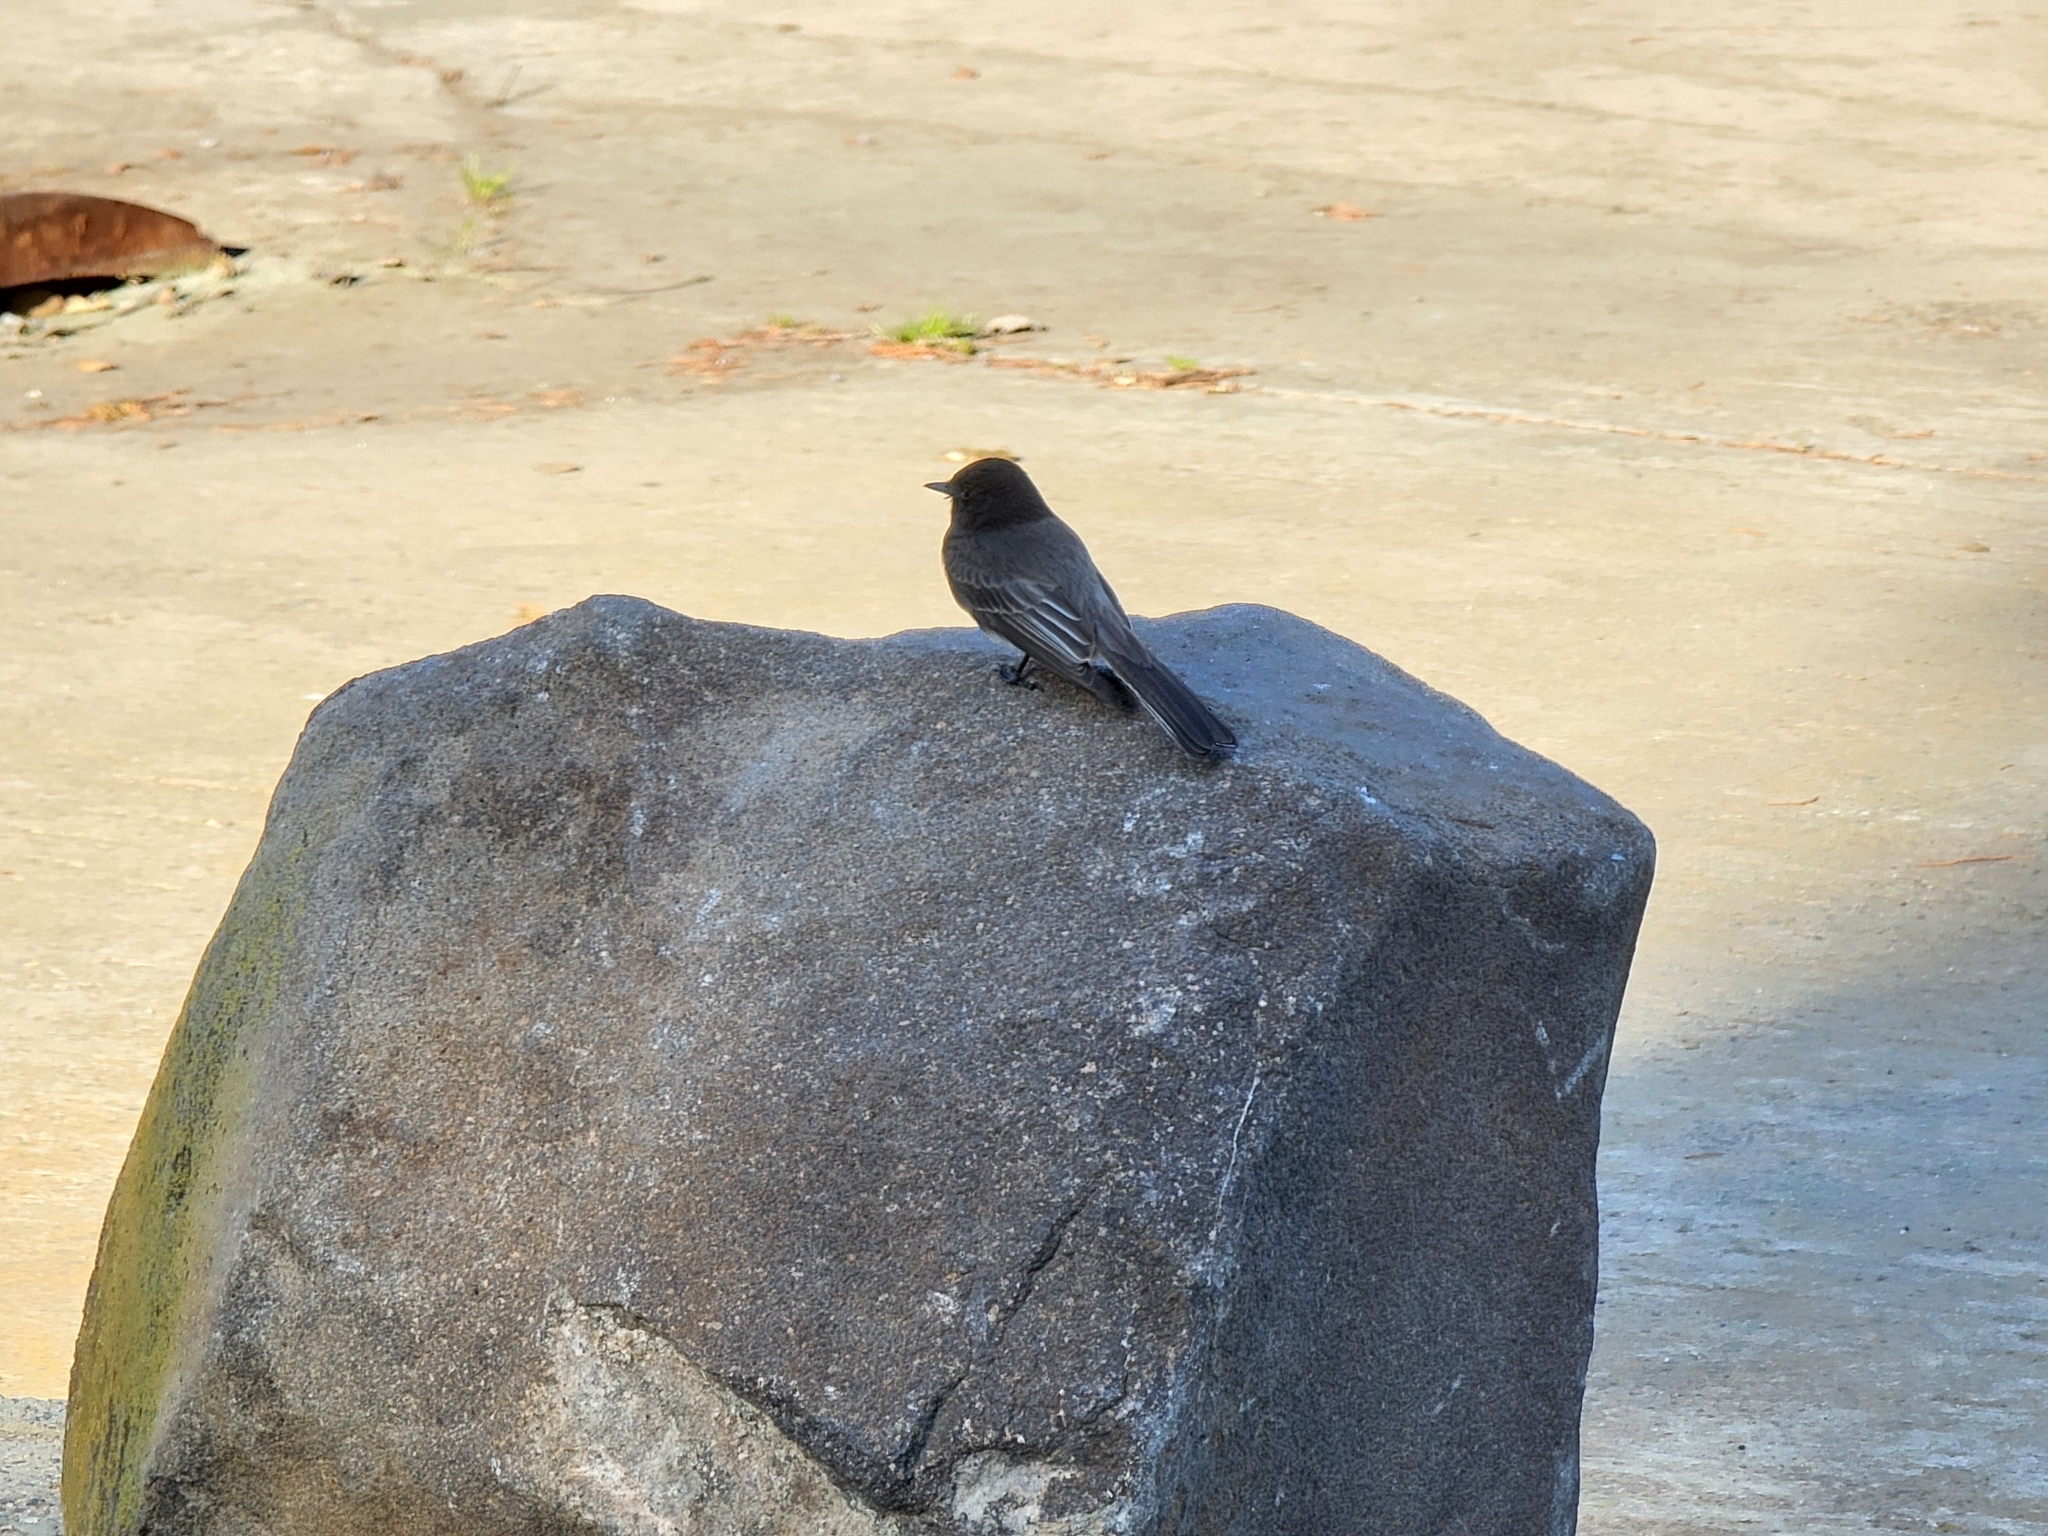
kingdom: Animalia
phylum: Chordata
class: Aves
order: Passeriformes
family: Tyrannidae
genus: Sayornis
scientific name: Sayornis nigricans
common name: Black phoebe
